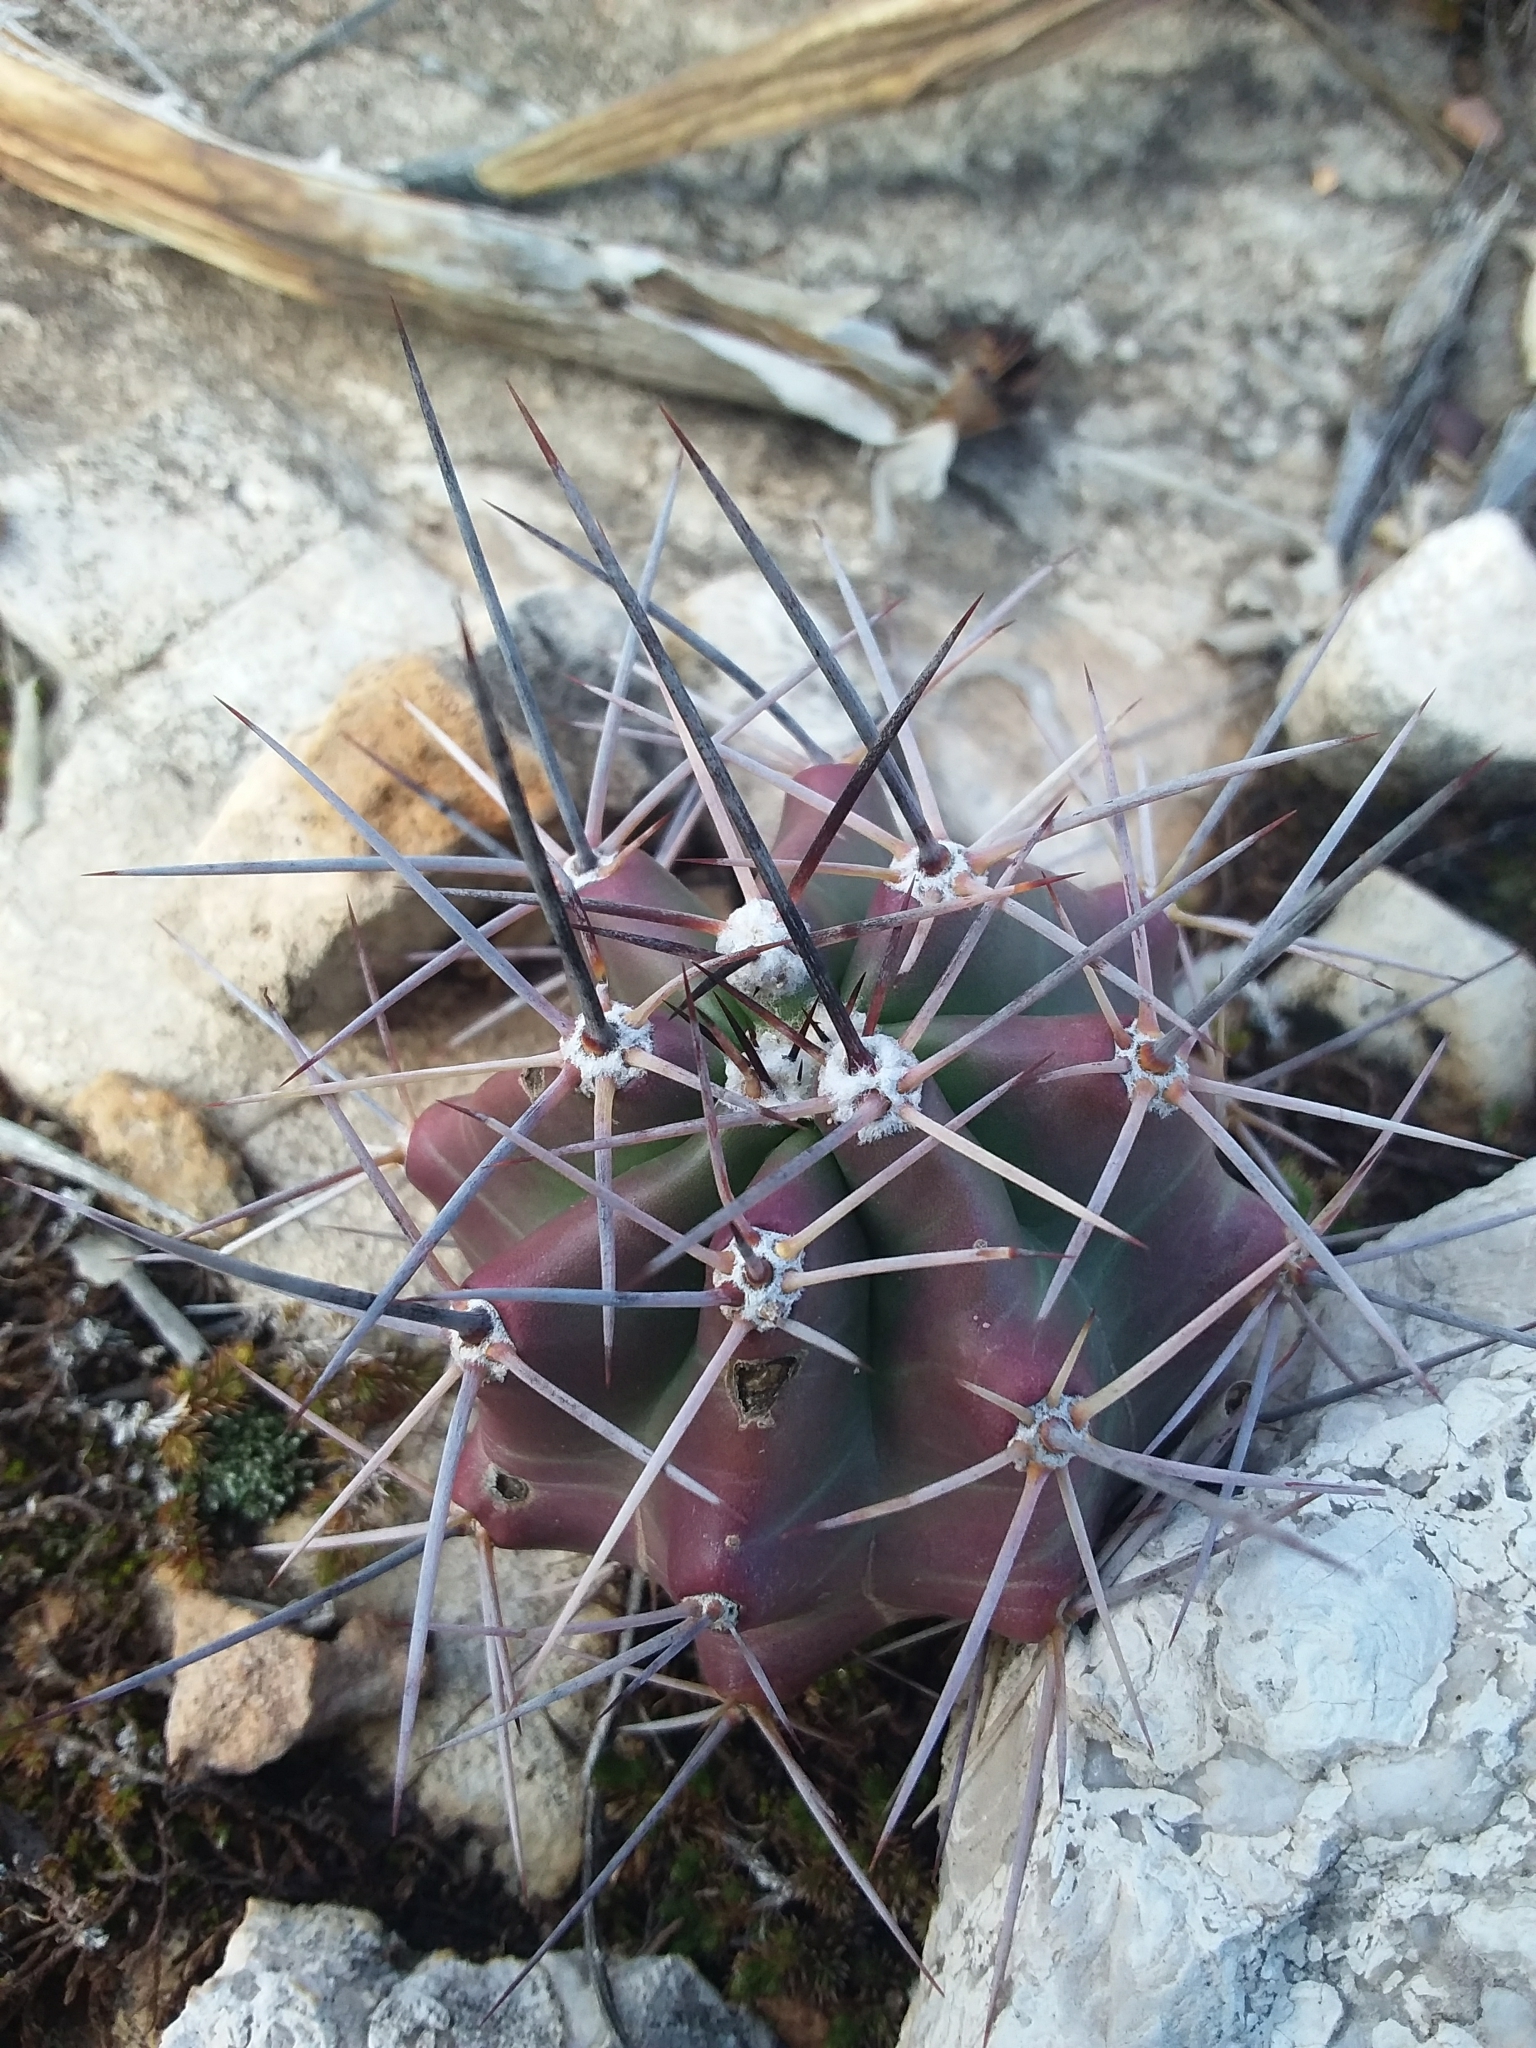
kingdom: Plantae
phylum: Tracheophyta
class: Magnoliopsida
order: Caryophyllales
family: Cactaceae
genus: Echinocereus
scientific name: Echinocereus coccineus
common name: Scarlet hedgehog cactus
